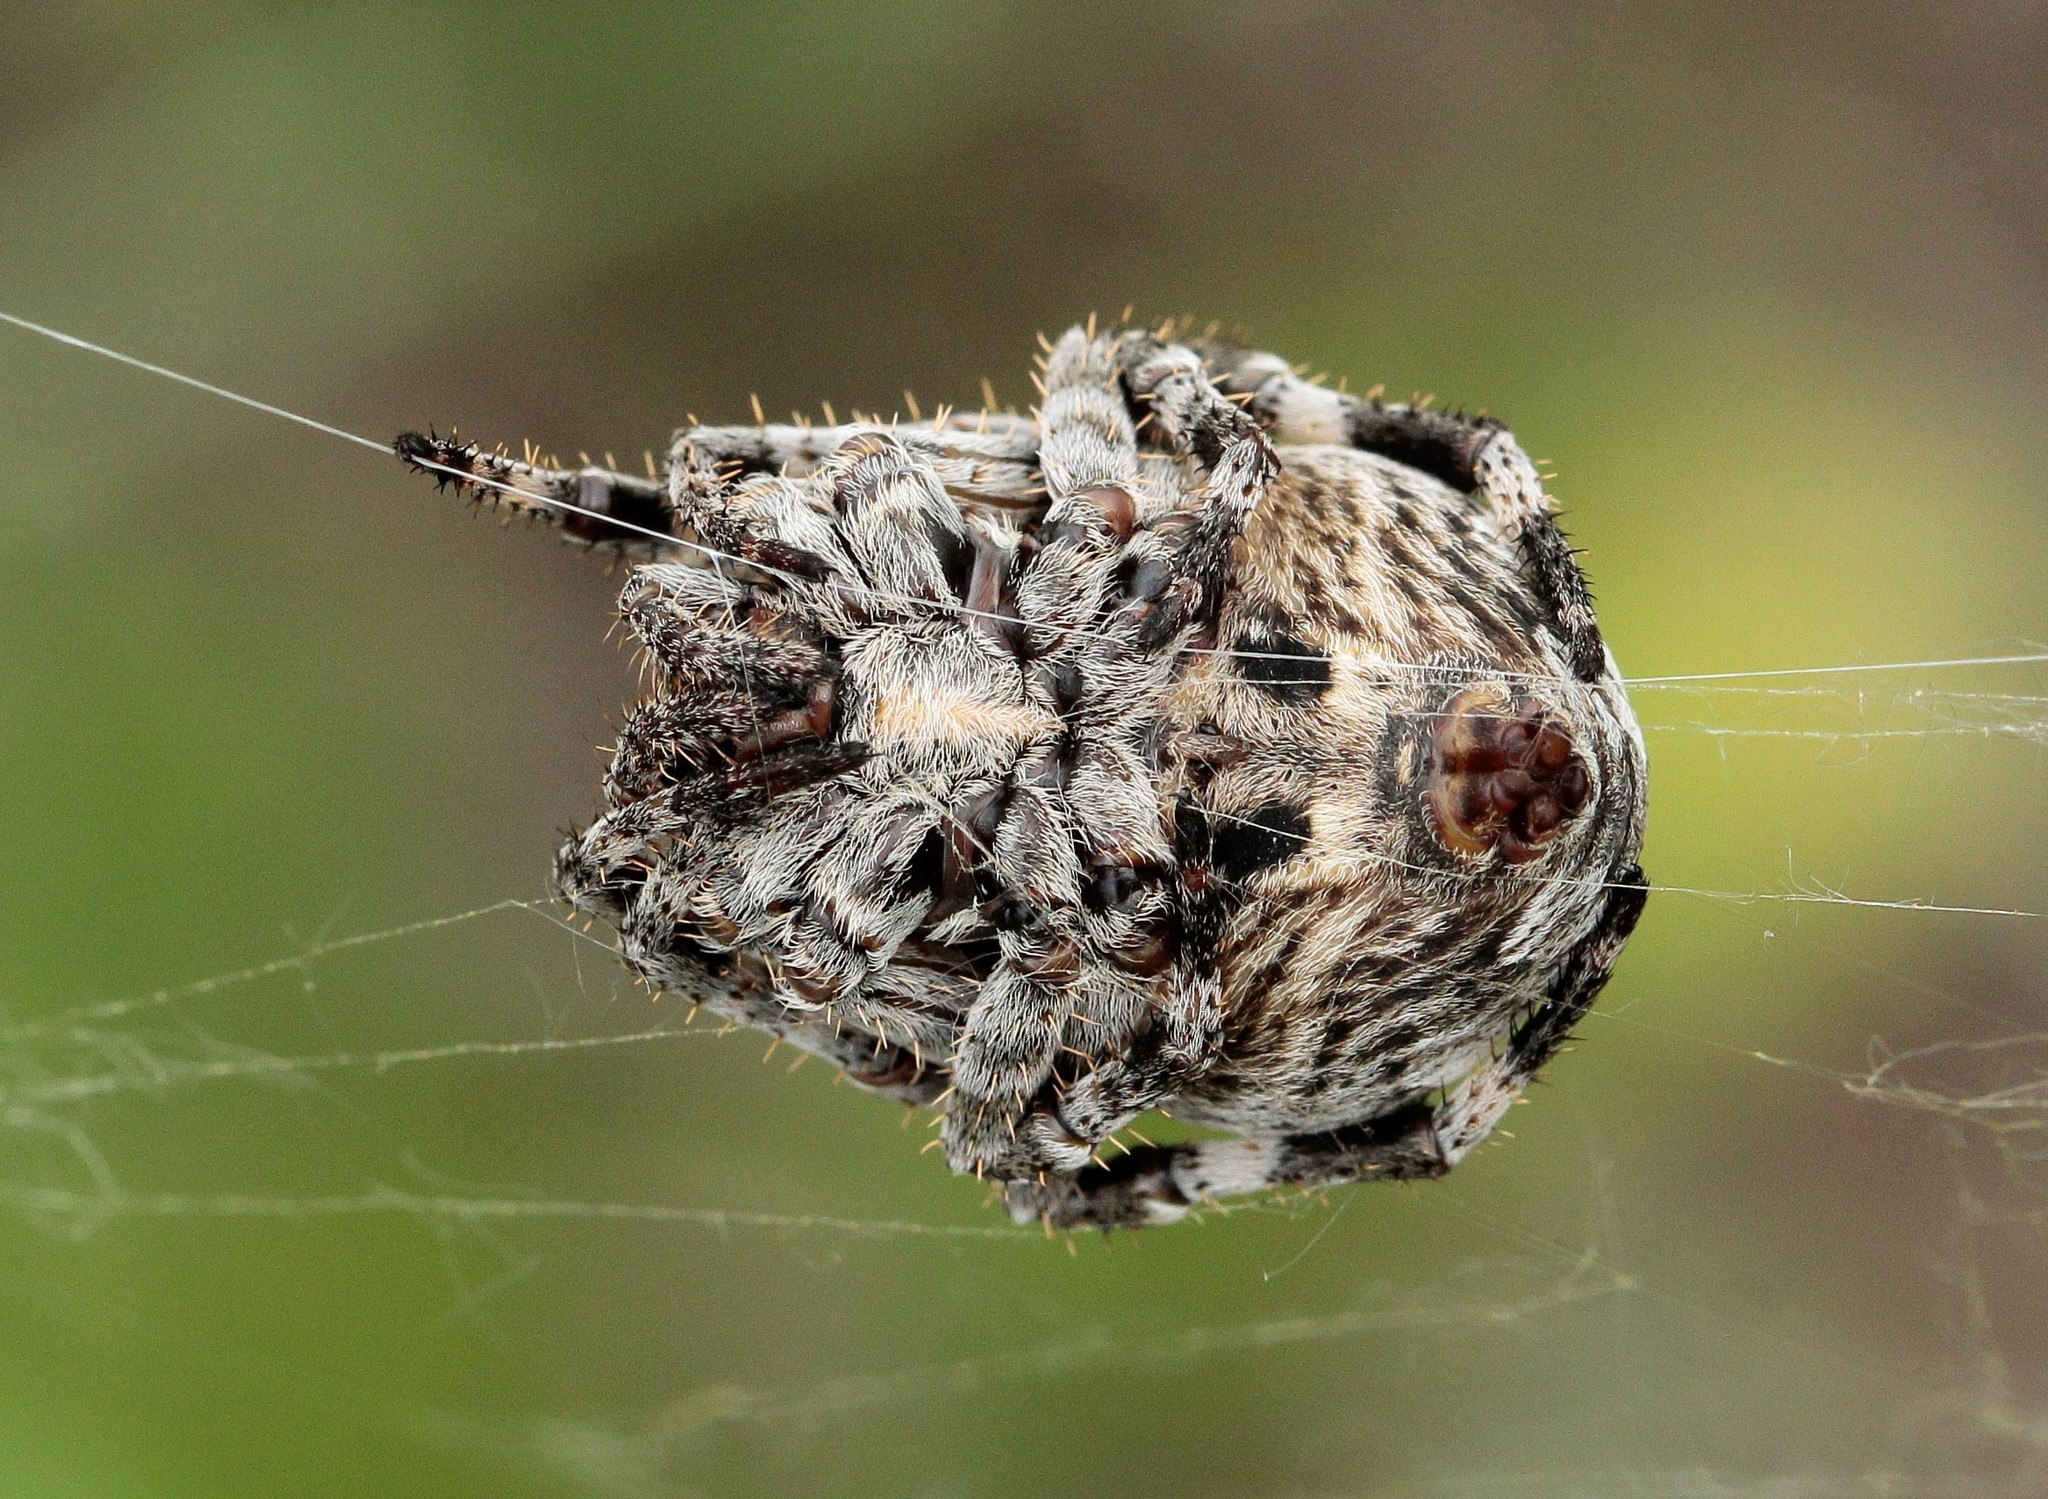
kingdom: Animalia
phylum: Arthropoda
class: Arachnida
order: Araneae
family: Araneidae
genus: Araneus
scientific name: Araneus grossus
